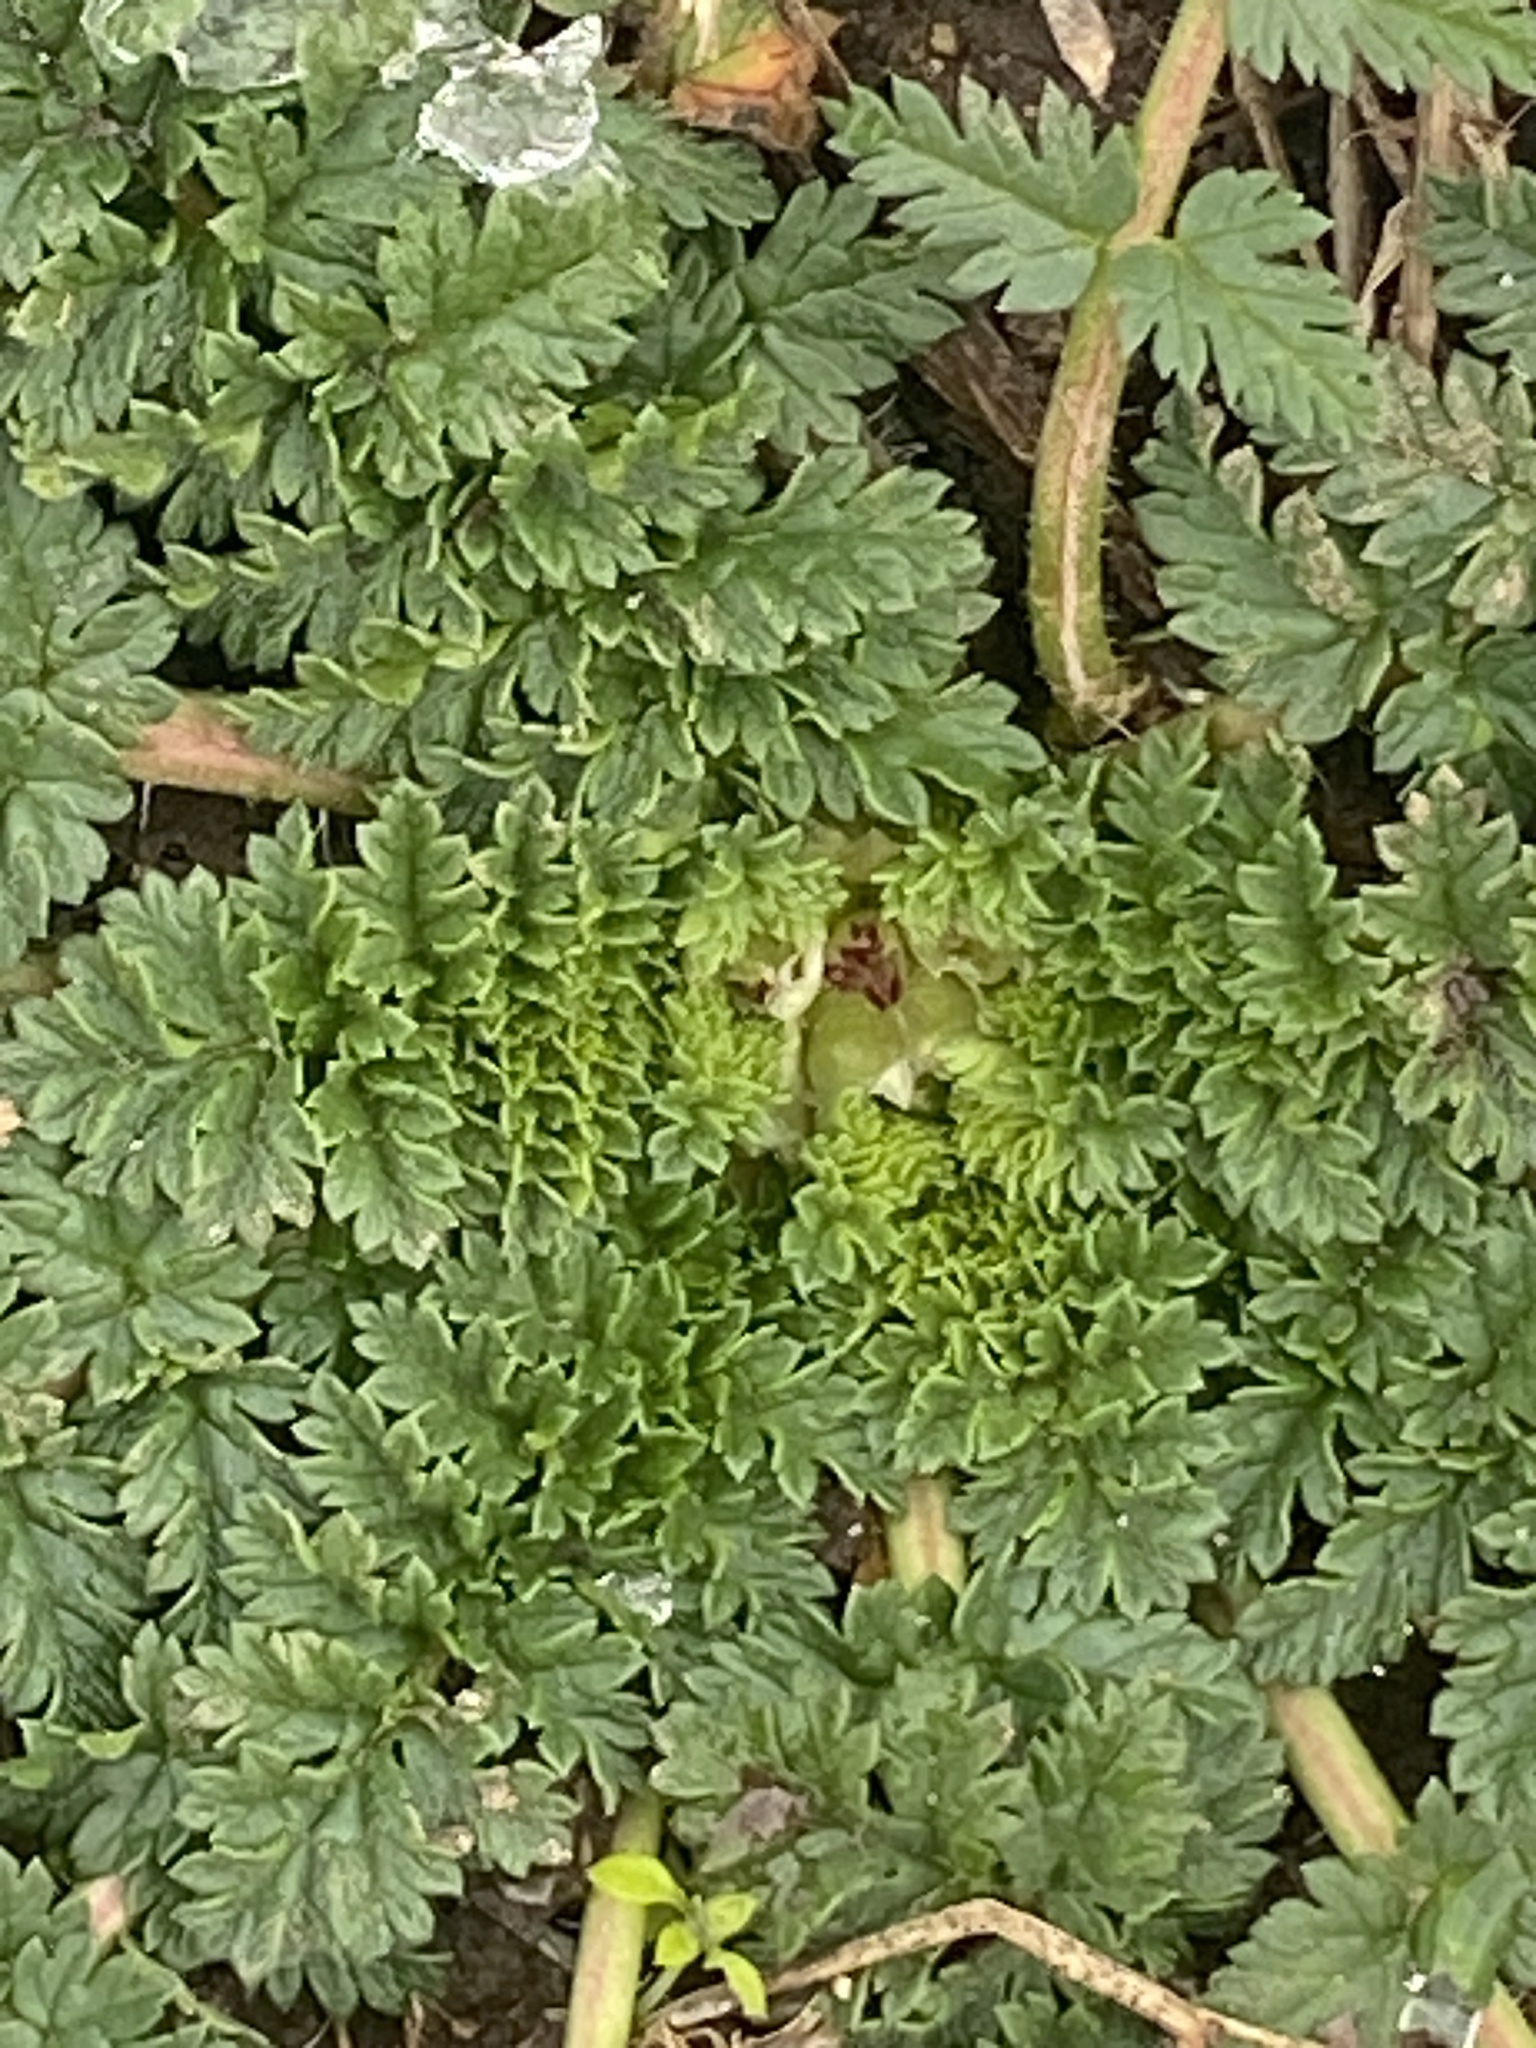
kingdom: Plantae
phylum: Tracheophyta
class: Magnoliopsida
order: Geraniales
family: Geraniaceae
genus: Erodium
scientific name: Erodium cicutarium
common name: Common stork's-bill
